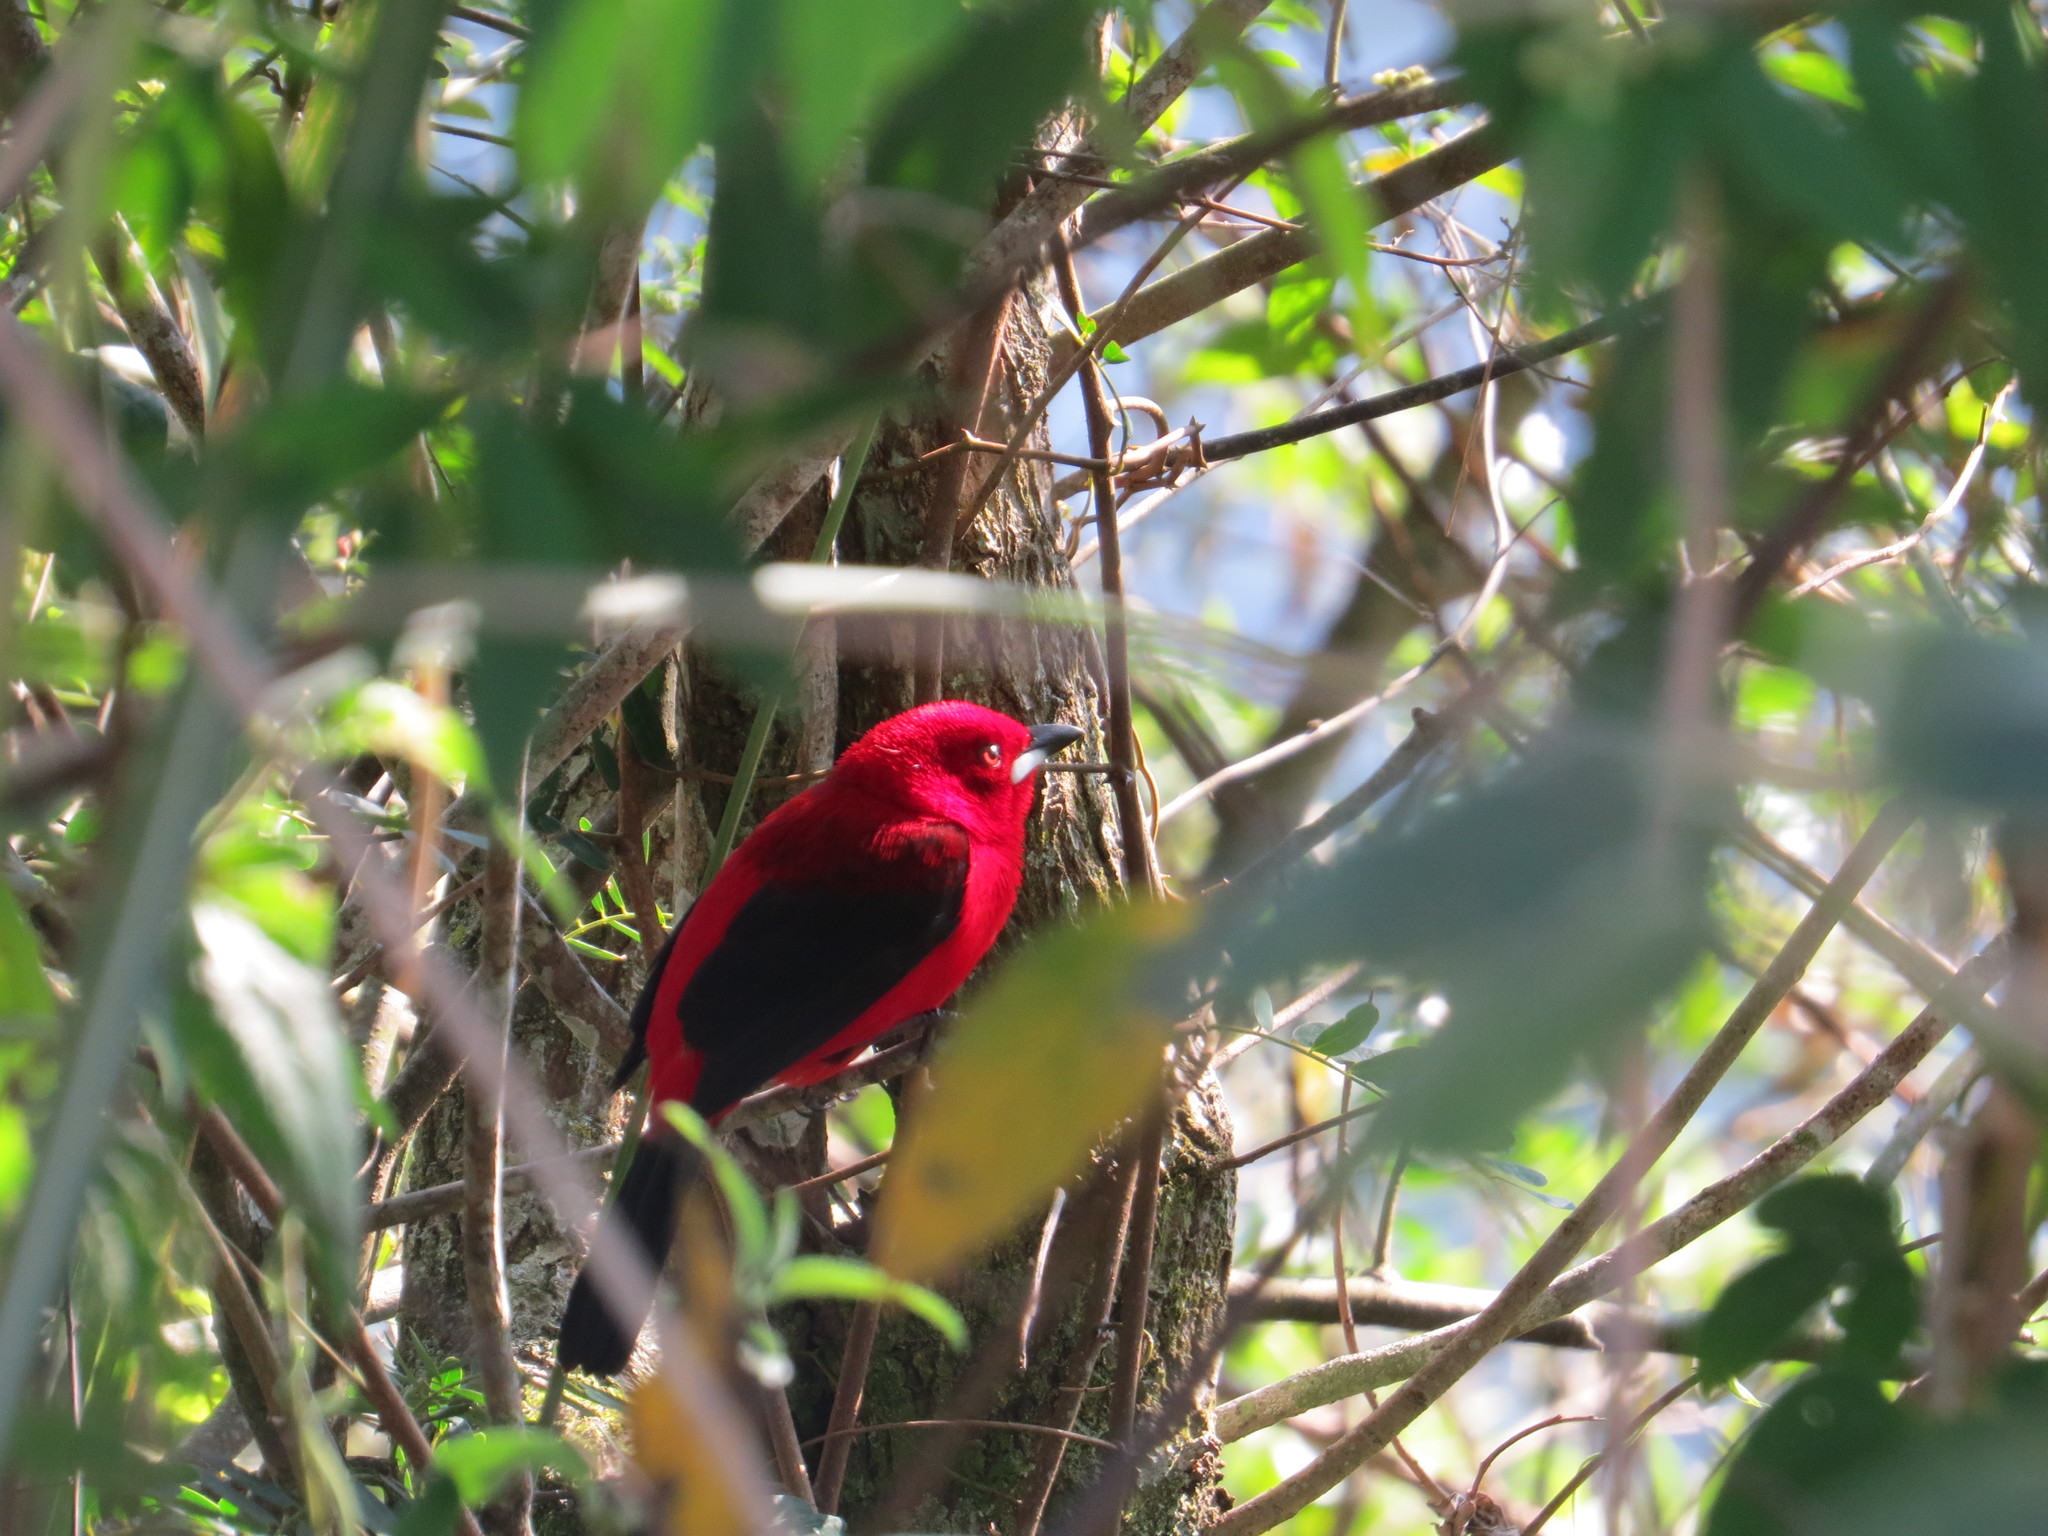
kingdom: Animalia
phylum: Chordata
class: Aves
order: Passeriformes
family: Thraupidae
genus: Ramphocelus
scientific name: Ramphocelus bresilia
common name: Brazilian tanager
